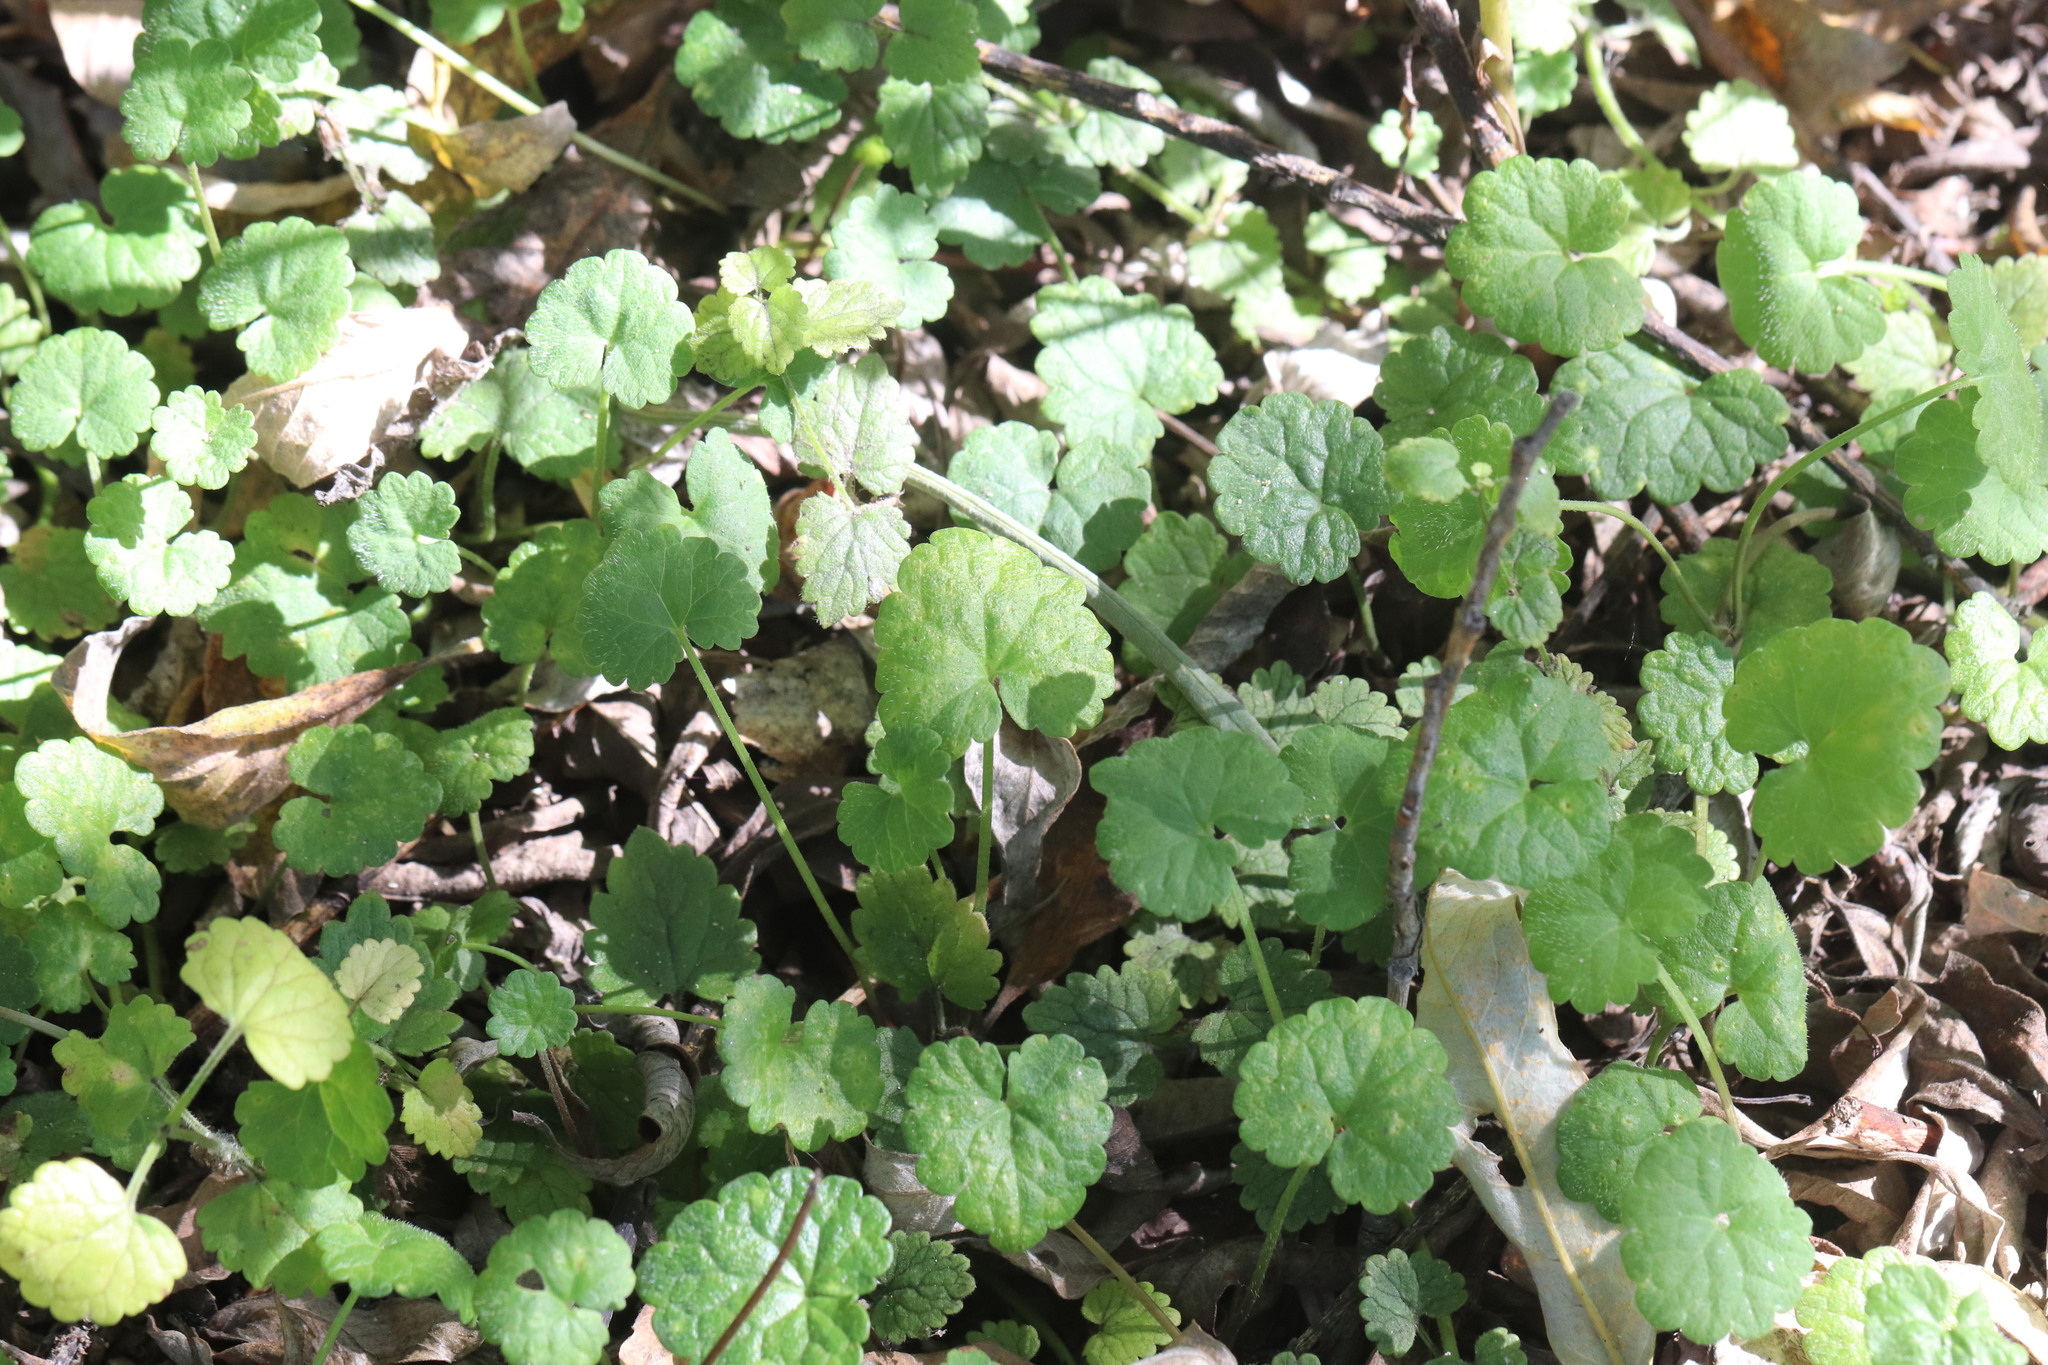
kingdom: Plantae
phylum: Tracheophyta
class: Magnoliopsida
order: Lamiales
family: Lamiaceae
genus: Glechoma
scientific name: Glechoma hederacea
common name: Ground ivy
